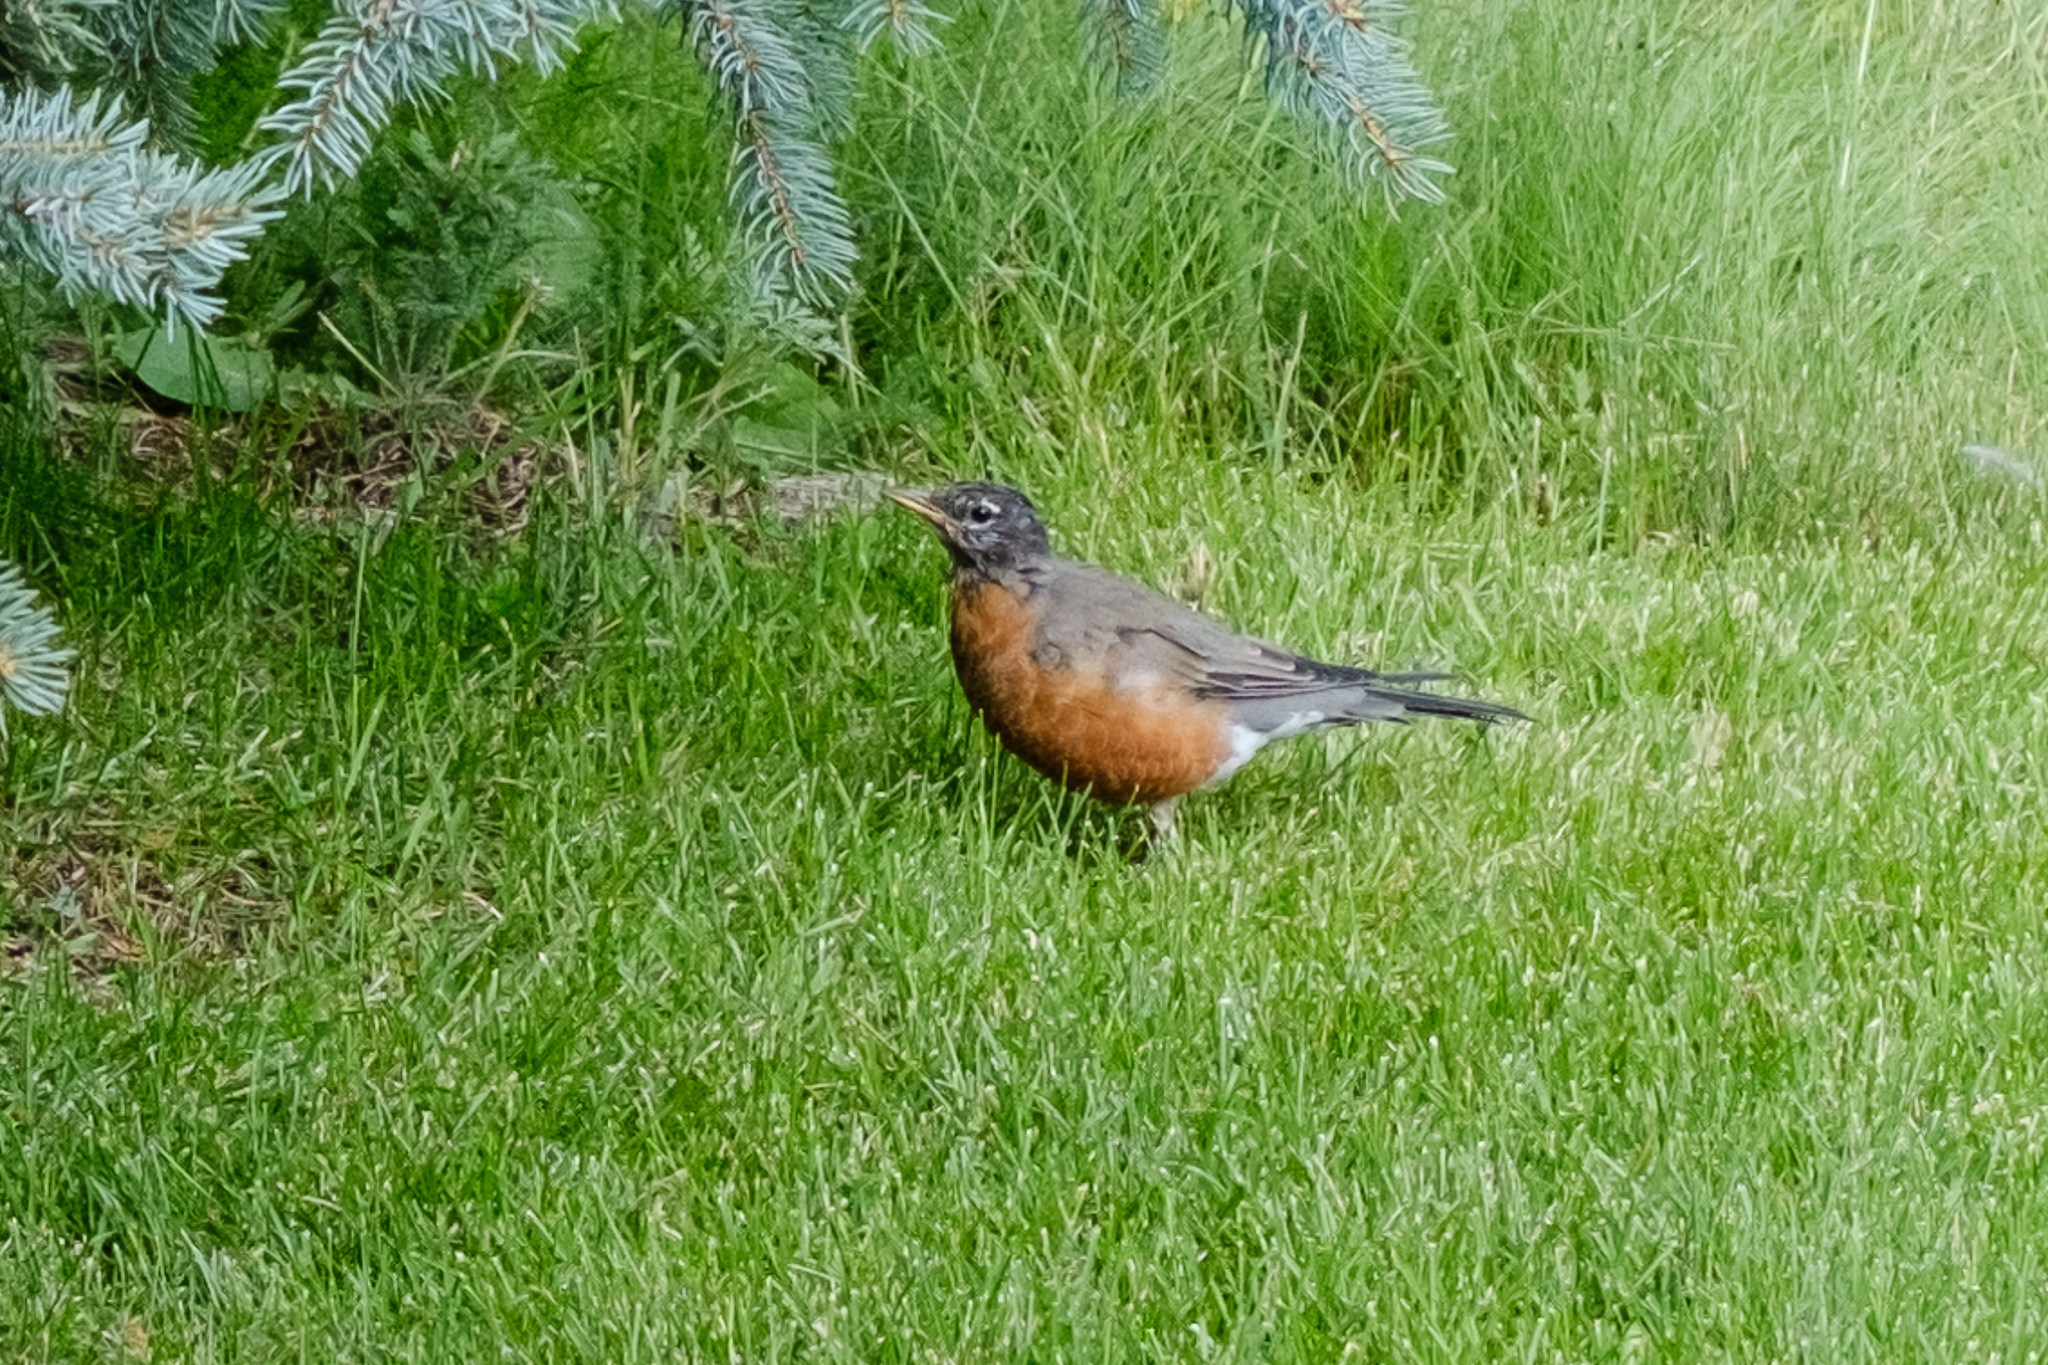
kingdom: Animalia
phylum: Chordata
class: Aves
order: Passeriformes
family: Turdidae
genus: Turdus
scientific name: Turdus migratorius
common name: American robin
